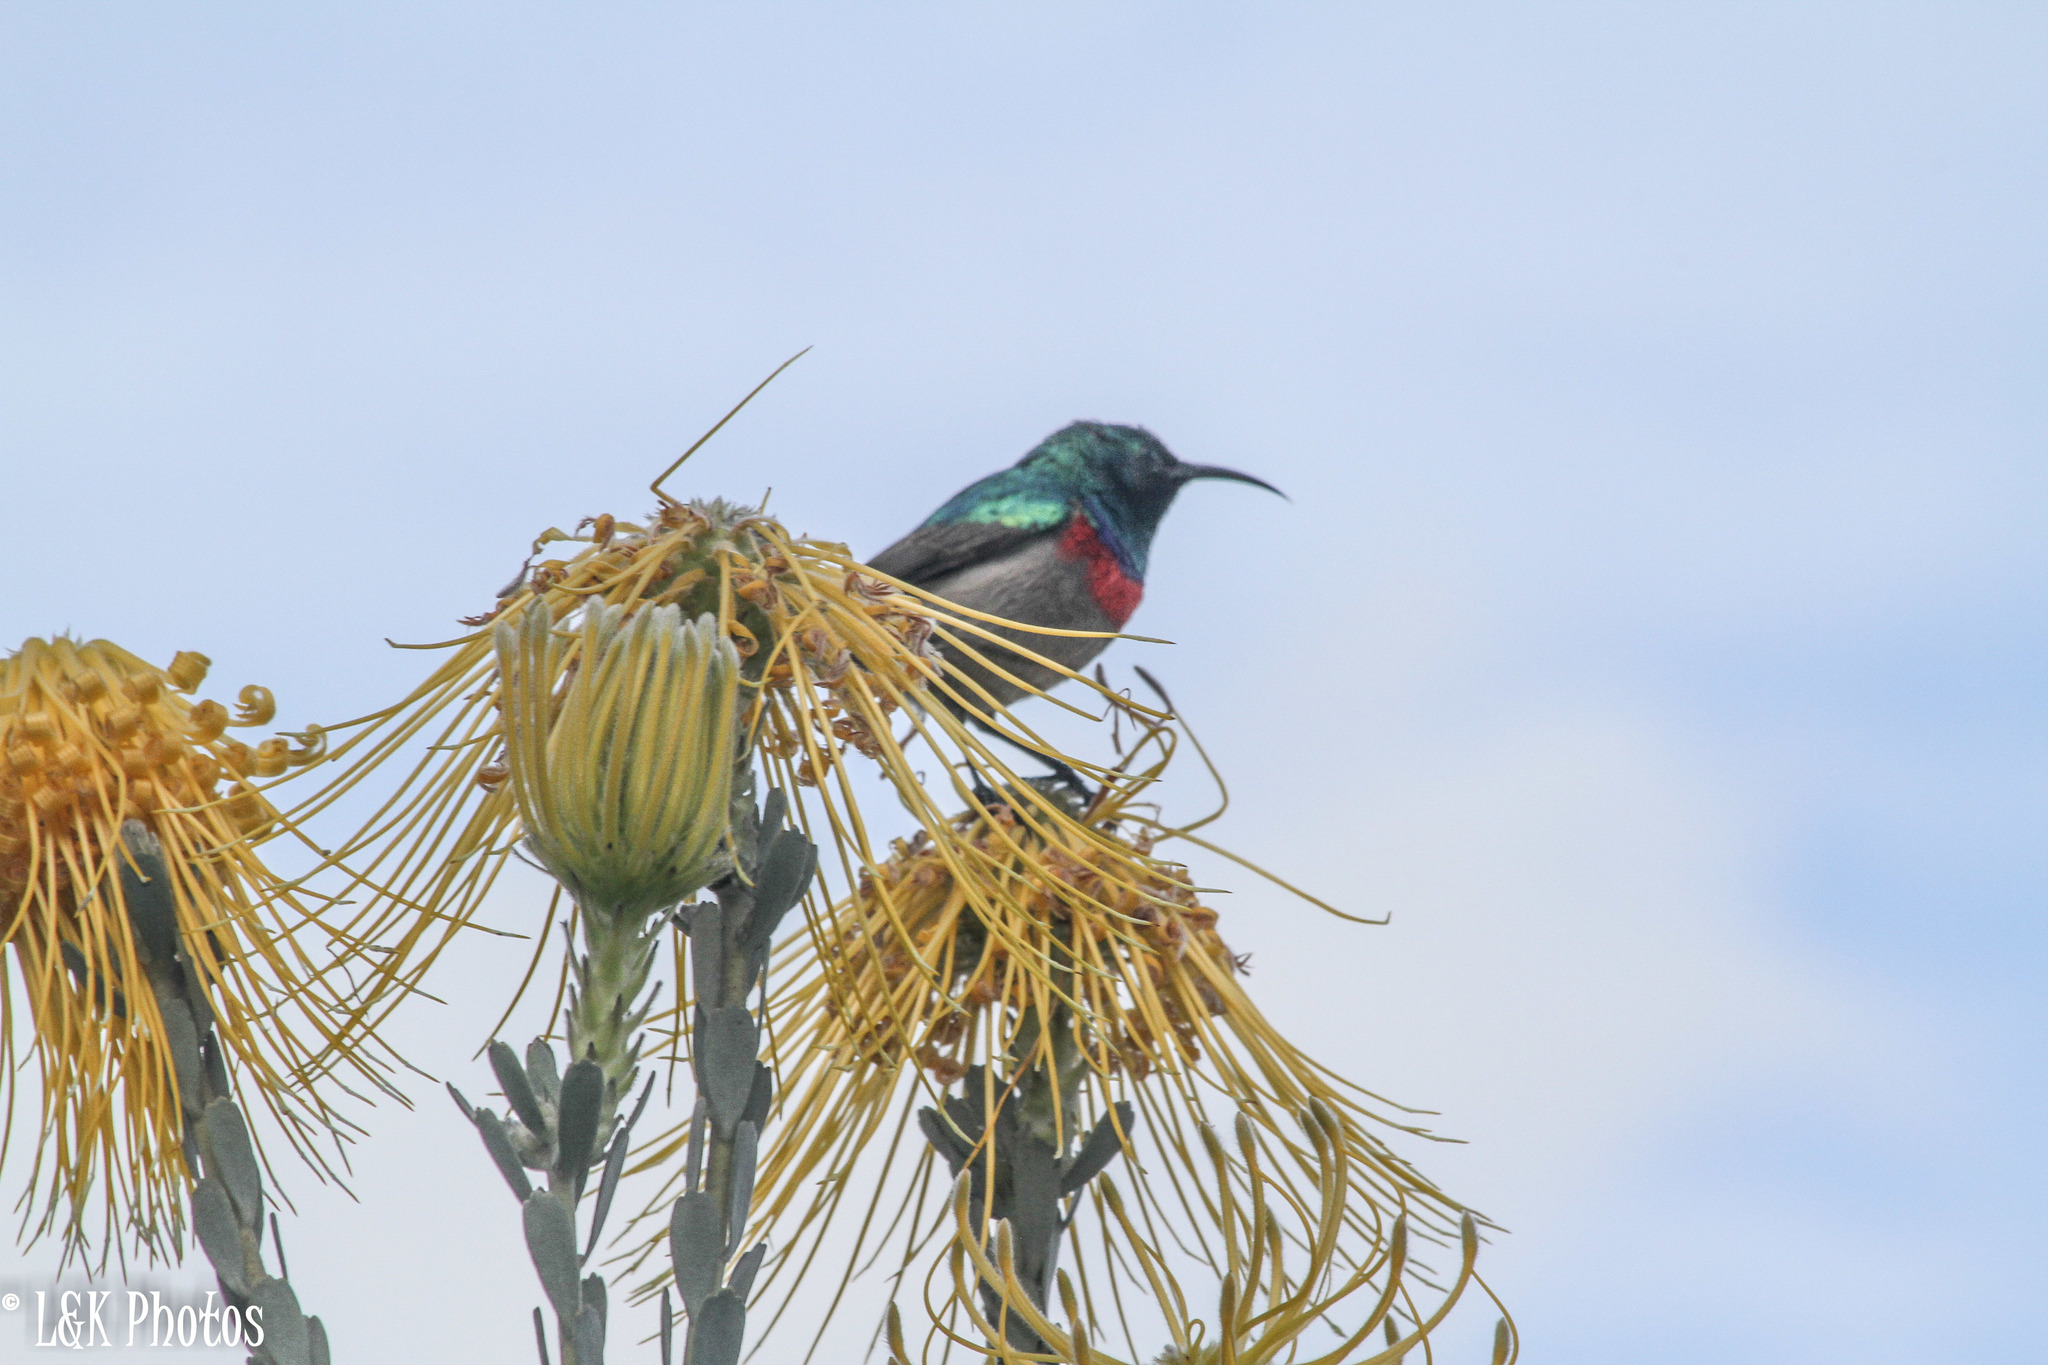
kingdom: Animalia
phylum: Chordata
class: Aves
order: Passeriformes
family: Nectariniidae
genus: Cinnyris
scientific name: Cinnyris chalybeus
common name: Southern double-collared sunbird
